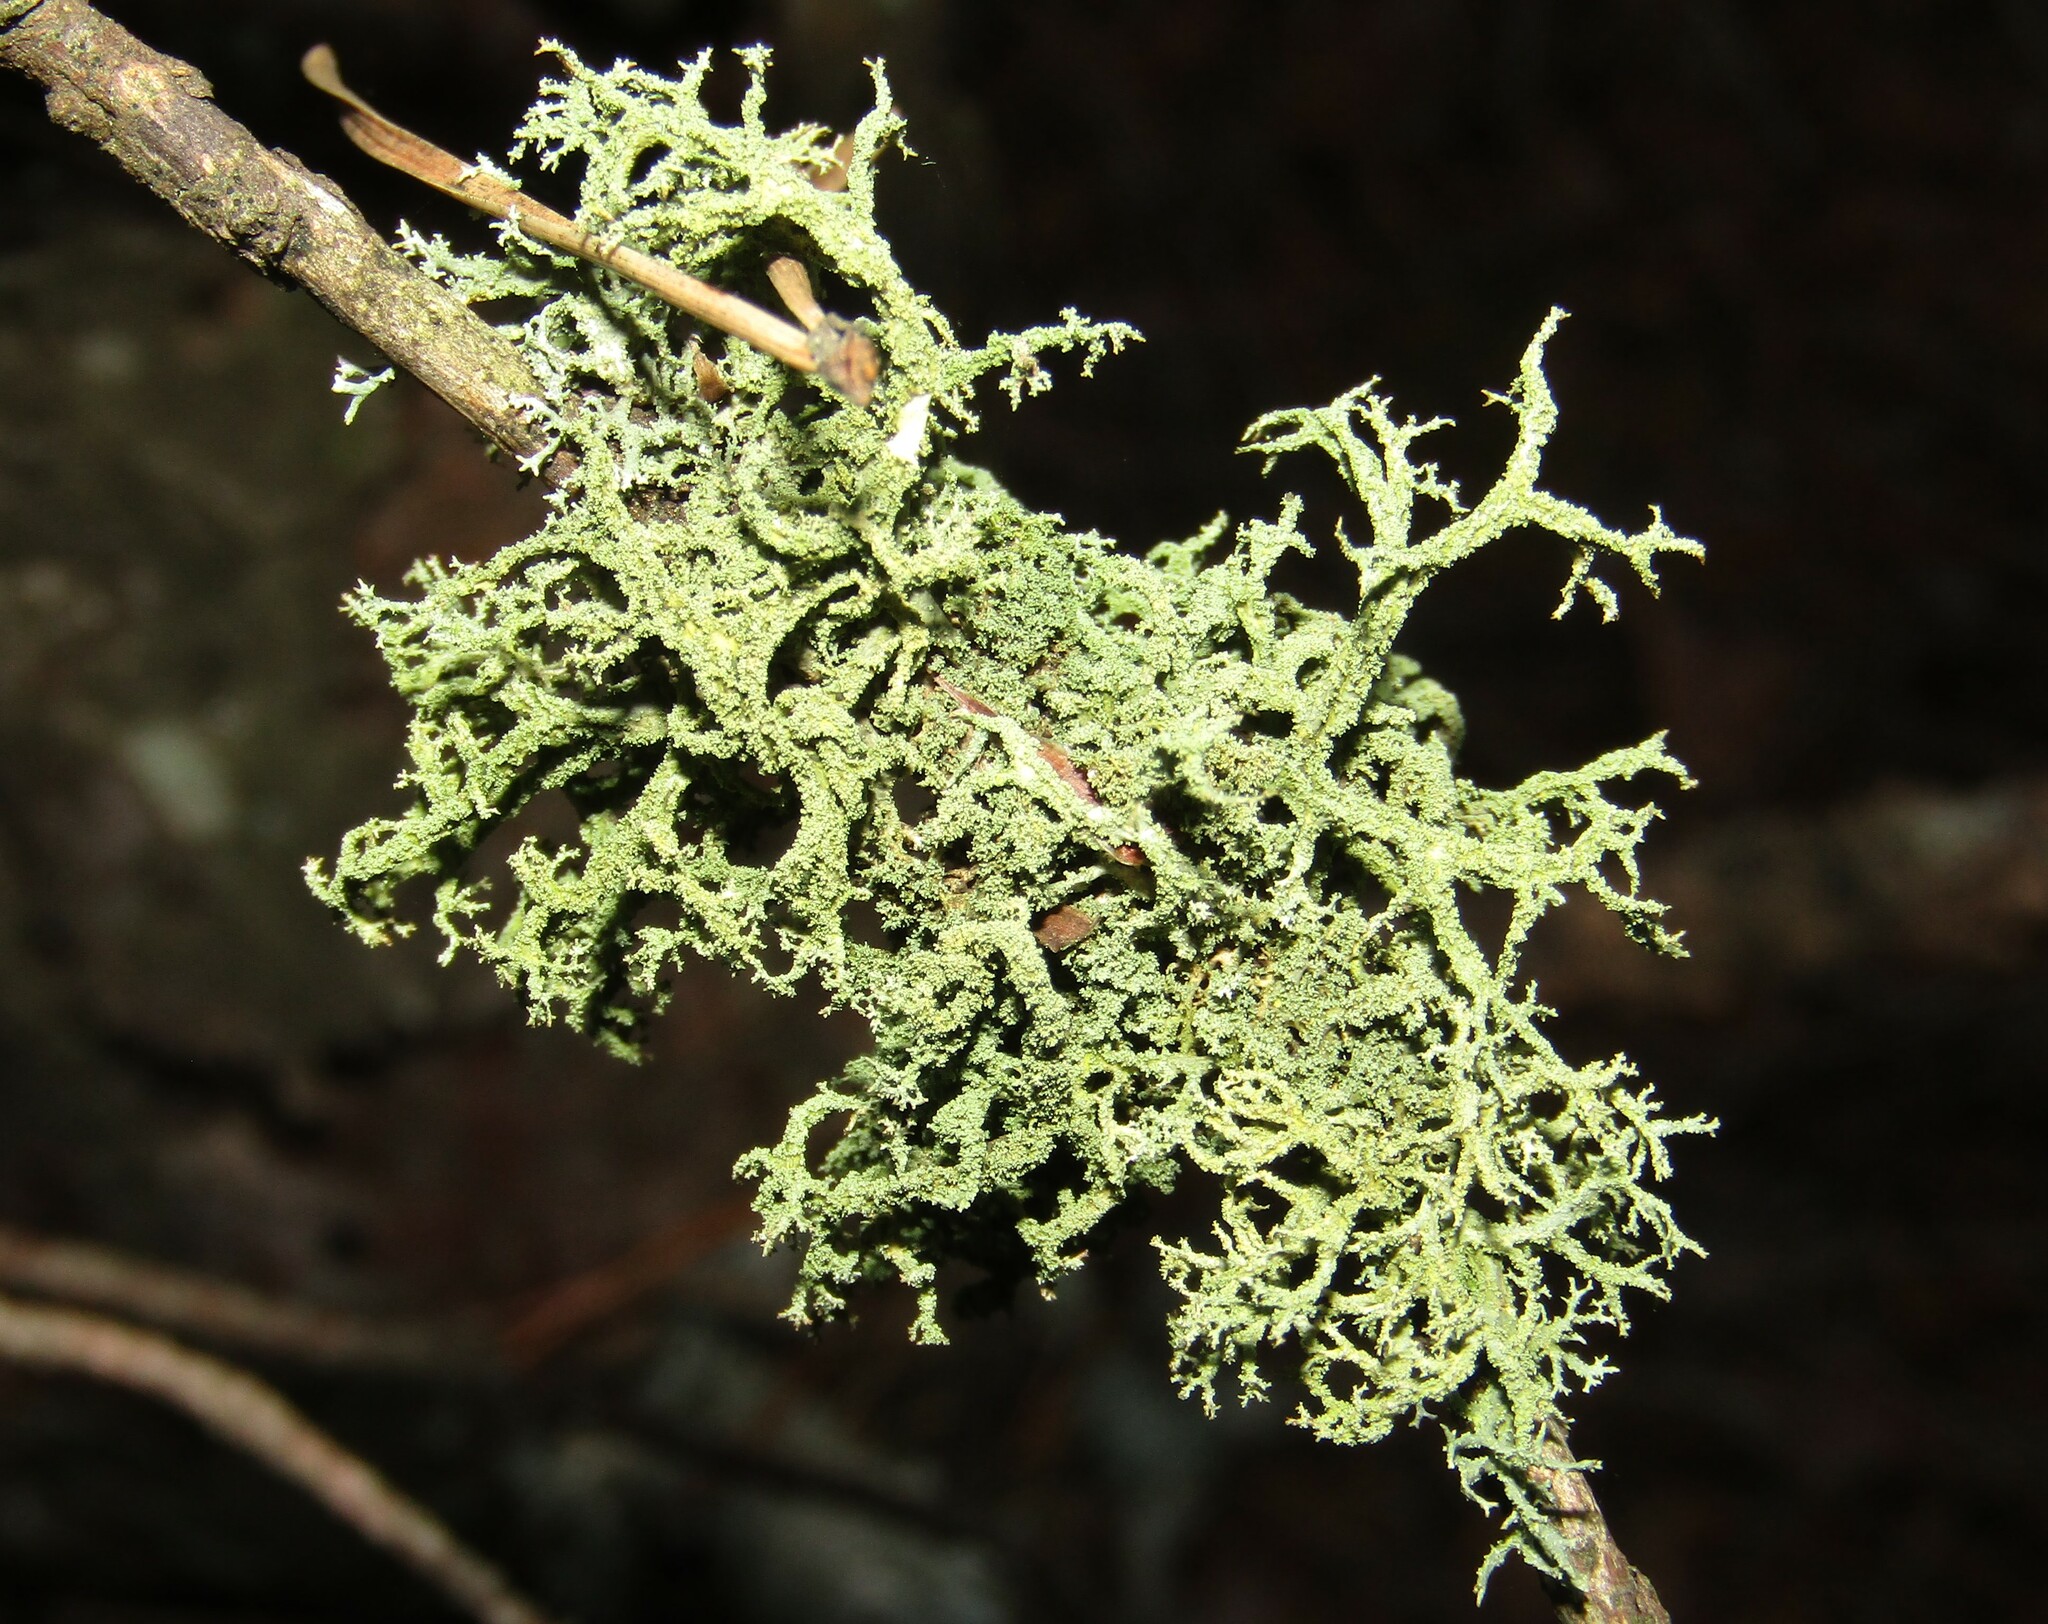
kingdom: Fungi
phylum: Ascomycota
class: Lecanoromycetes
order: Lecanorales
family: Parmeliaceae
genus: Evernia
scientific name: Evernia mesomorpha
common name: Boreal oak moss lichen
